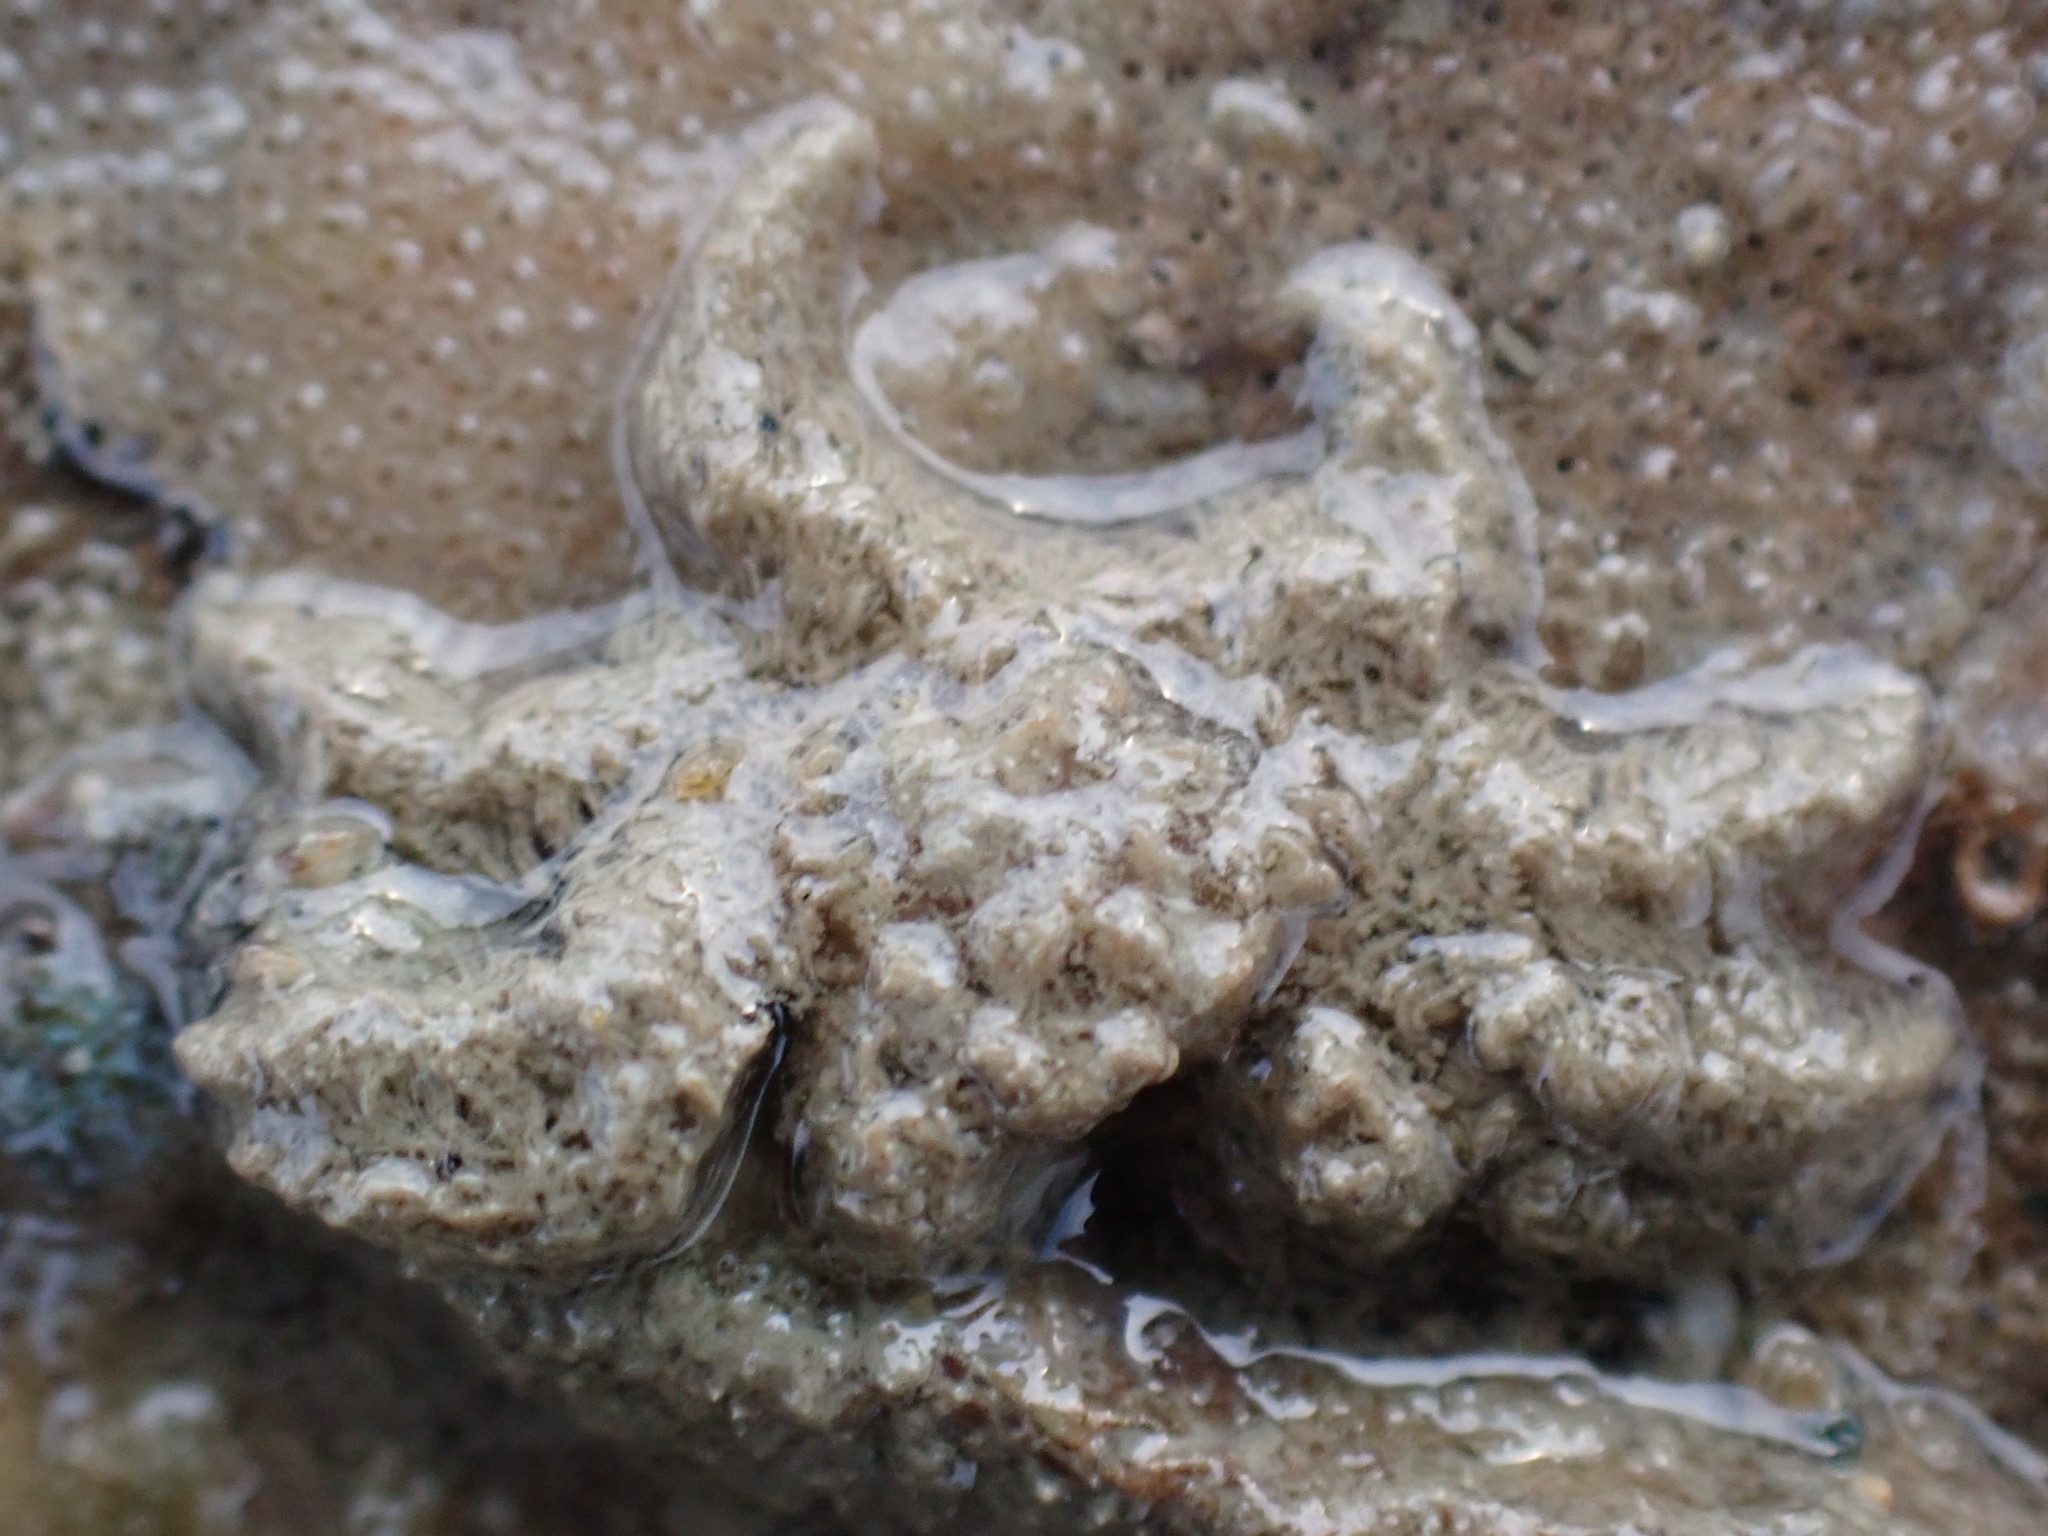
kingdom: Animalia
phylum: Arthropoda
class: Malacostraca
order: Decapoda
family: Hymenosomatidae
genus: Neohymenicus
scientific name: Neohymenicus pubescens
